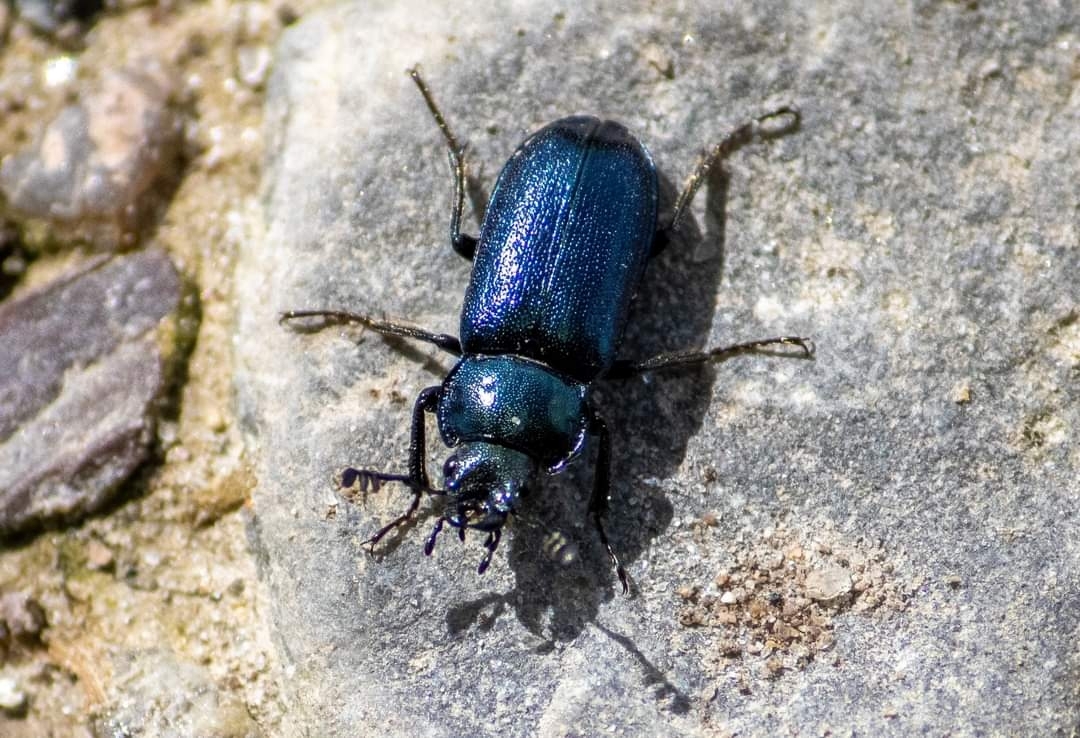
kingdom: Animalia
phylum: Arthropoda
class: Insecta
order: Coleoptera
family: Lucanidae
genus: Platycerus
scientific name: Platycerus caraboides
